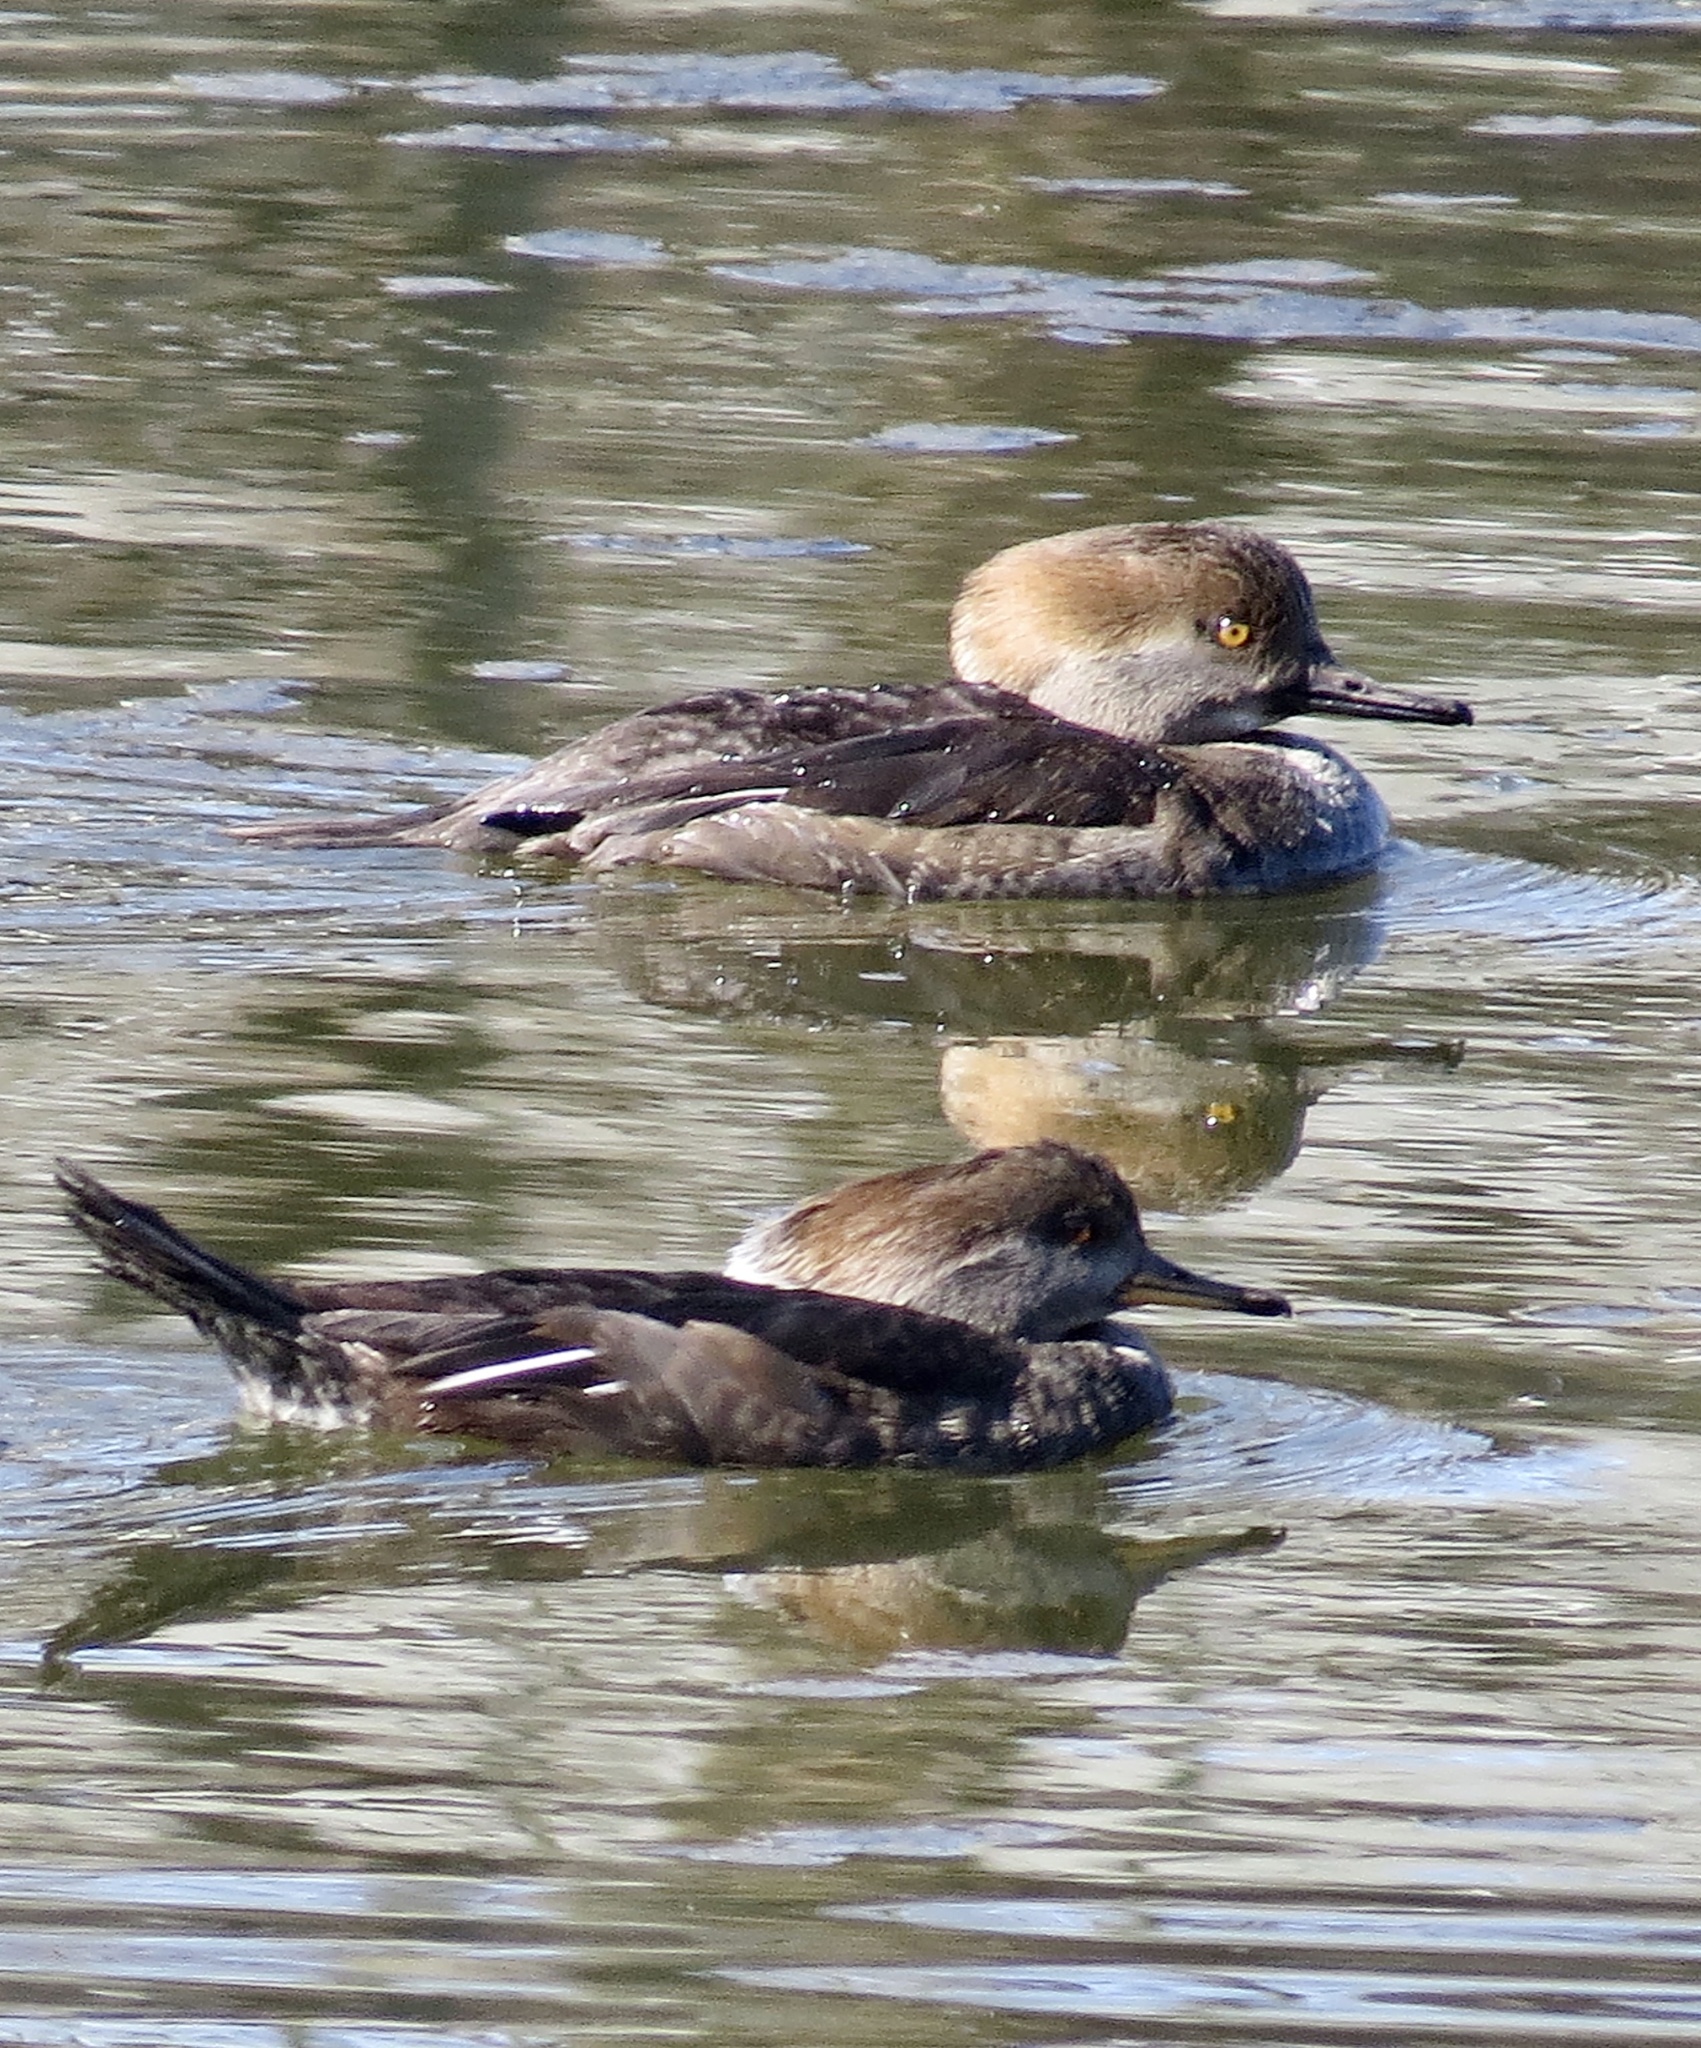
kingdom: Animalia
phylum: Chordata
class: Aves
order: Anseriformes
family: Anatidae
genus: Lophodytes
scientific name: Lophodytes cucullatus
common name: Hooded merganser
